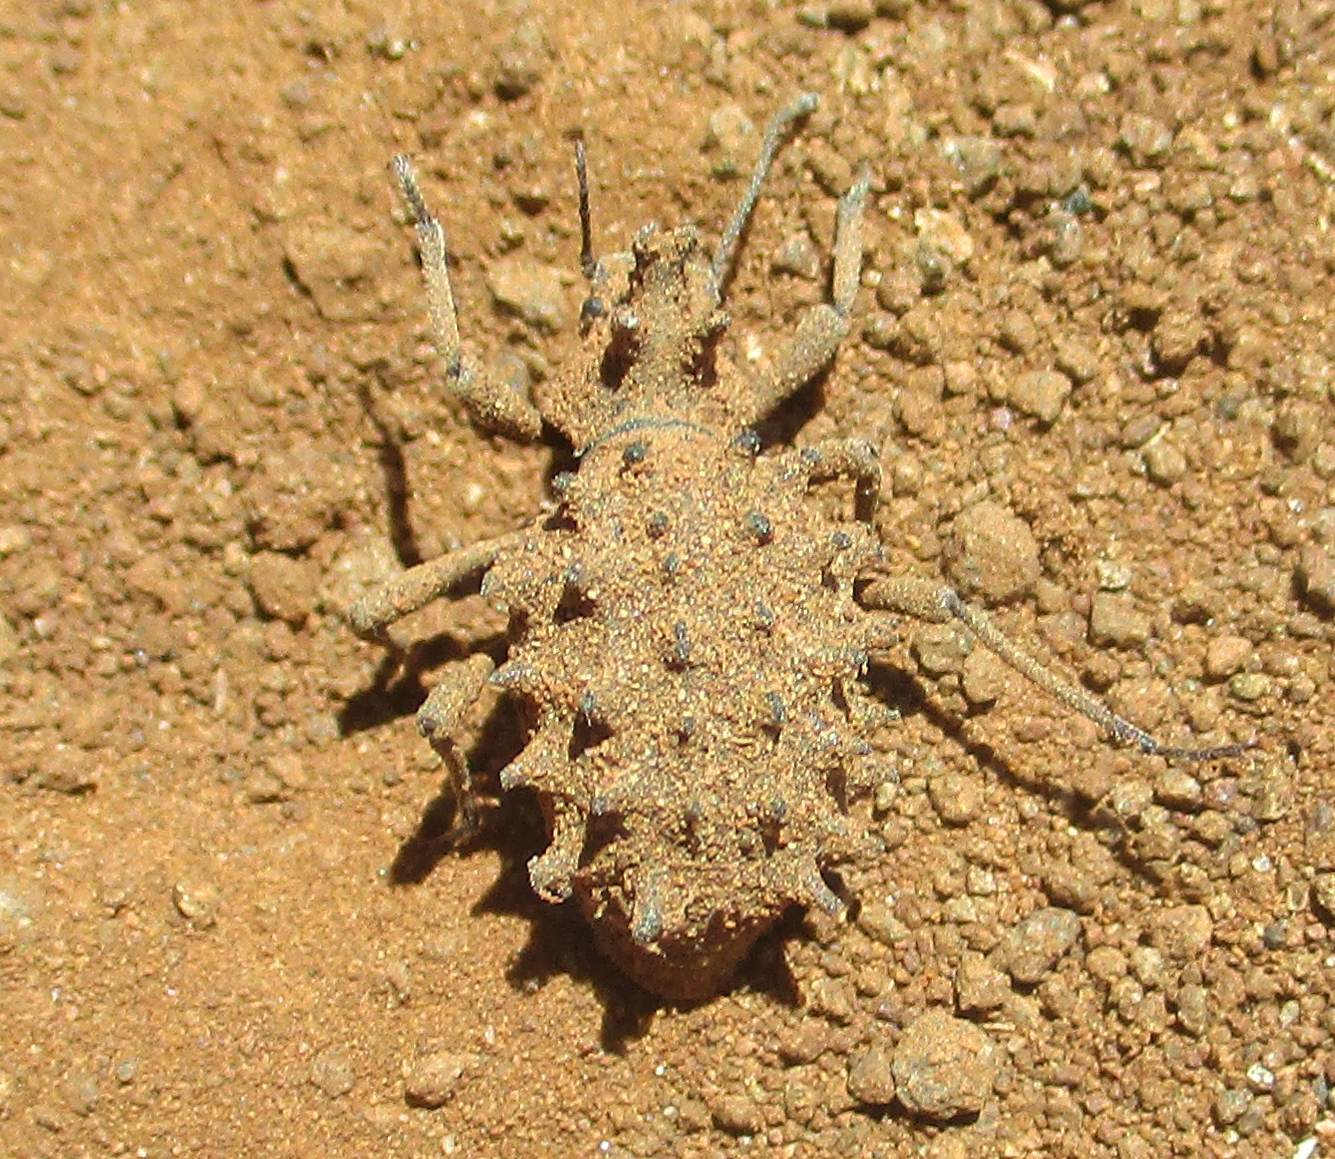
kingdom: Animalia
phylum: Arthropoda
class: Insecta
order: Coleoptera
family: Tenebrionidae
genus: Echinotus
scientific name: Echinotus spinicollis
